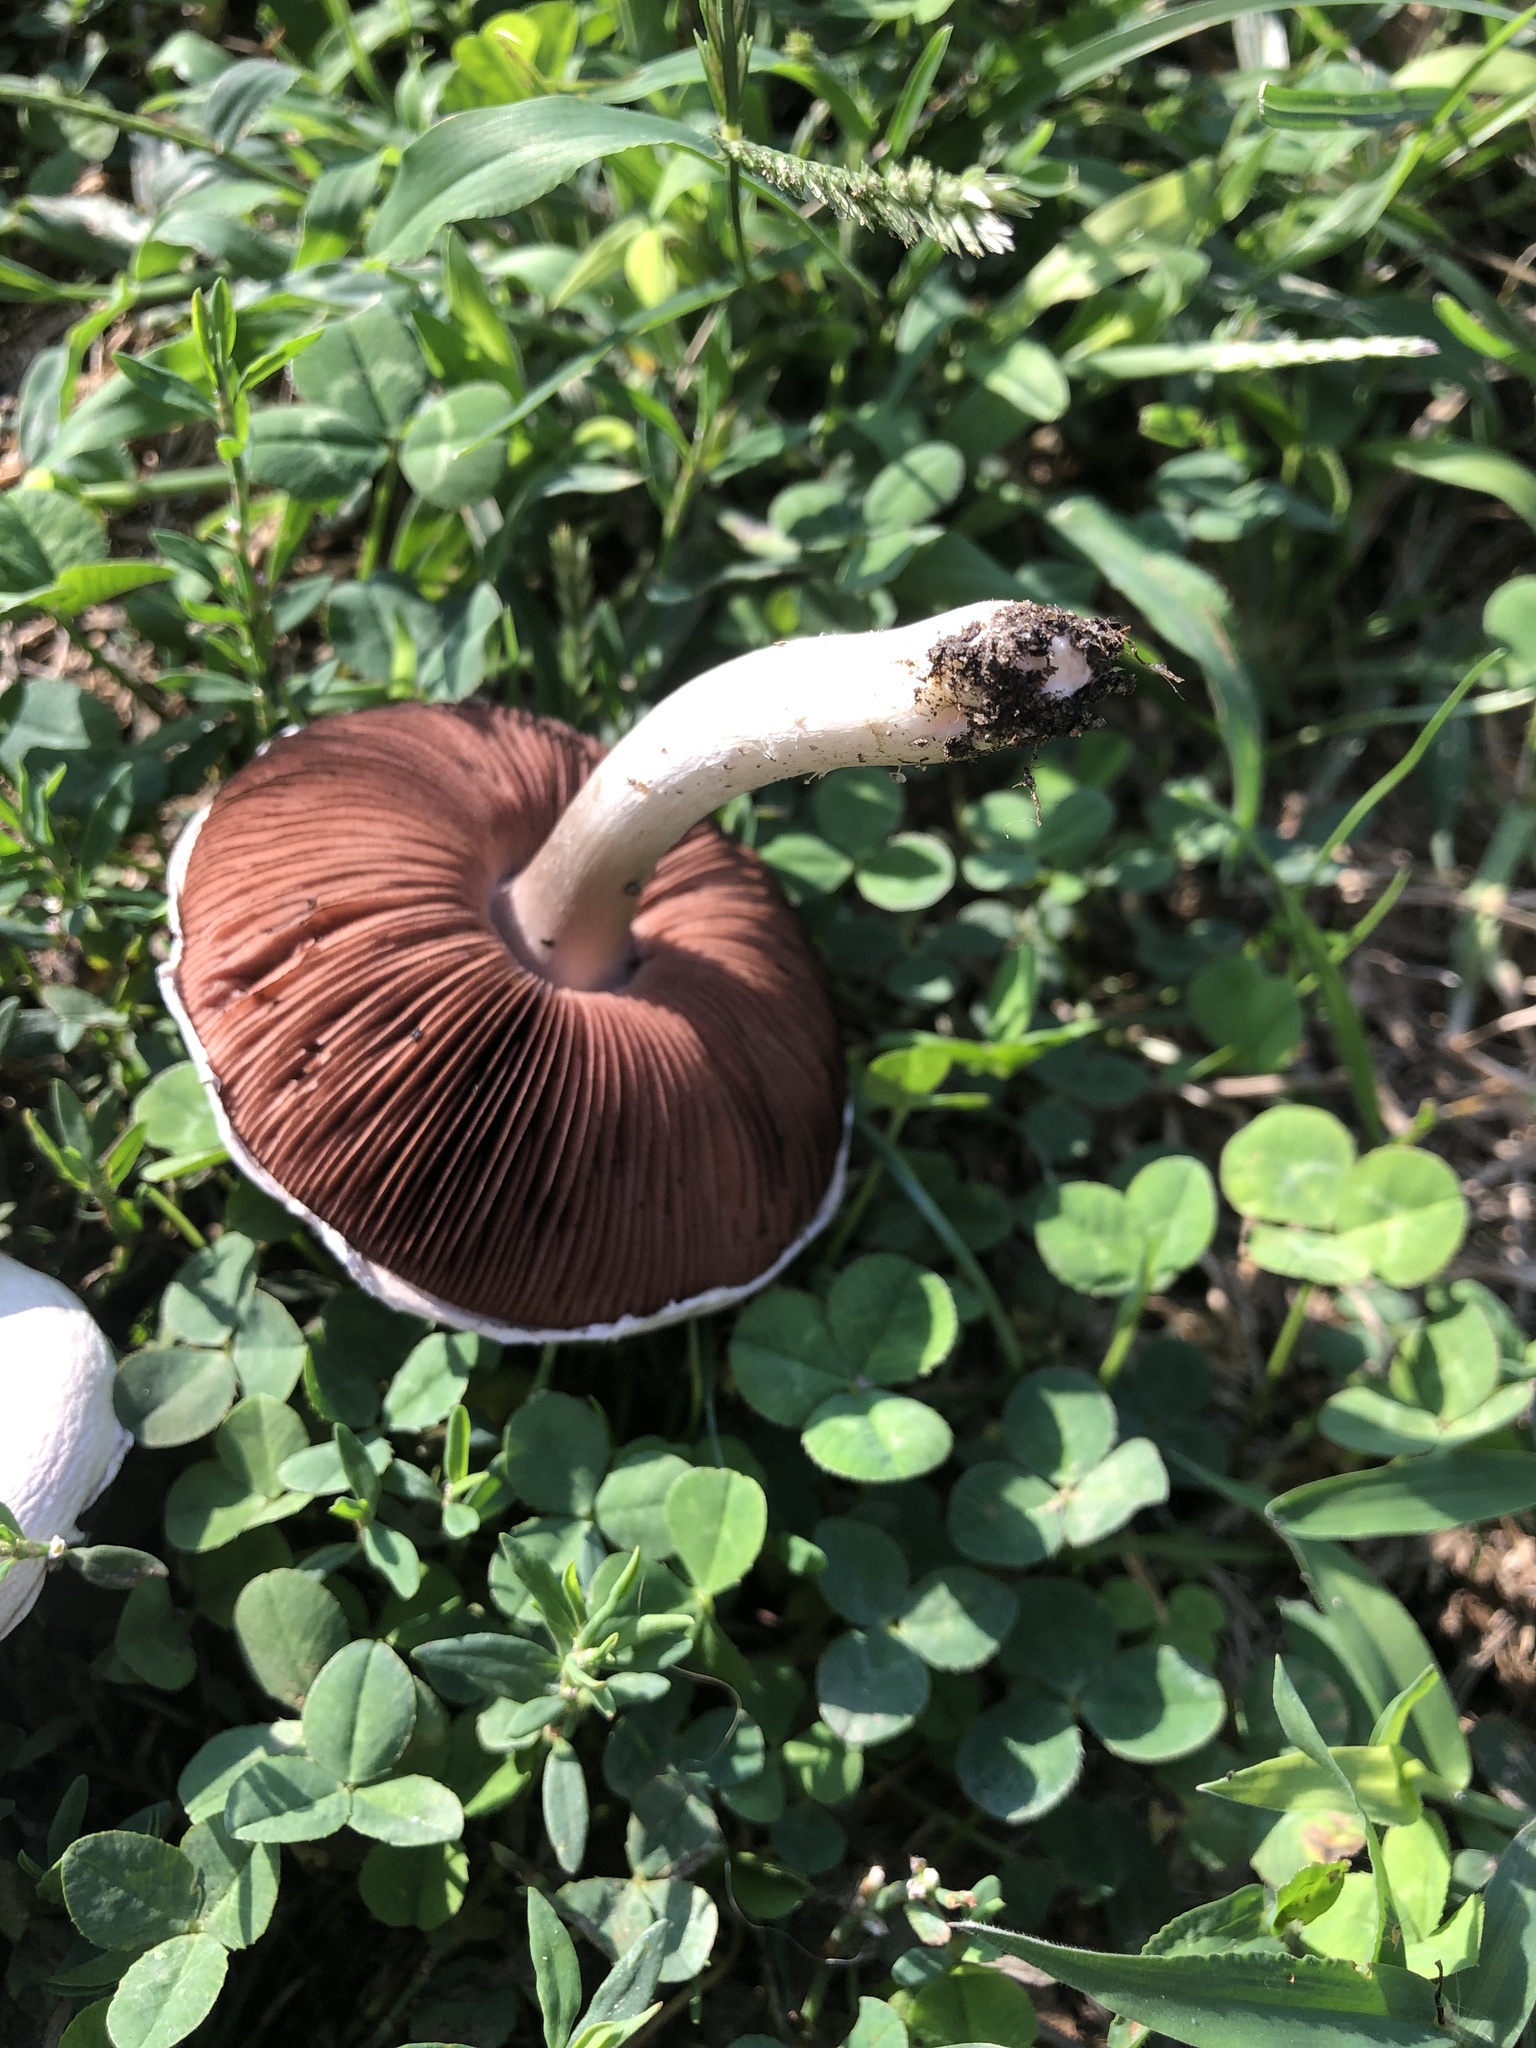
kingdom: Fungi
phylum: Basidiomycota
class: Agaricomycetes
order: Agaricales
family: Agaricaceae
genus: Agaricus
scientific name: Agaricus campestris
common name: Field mushroom
